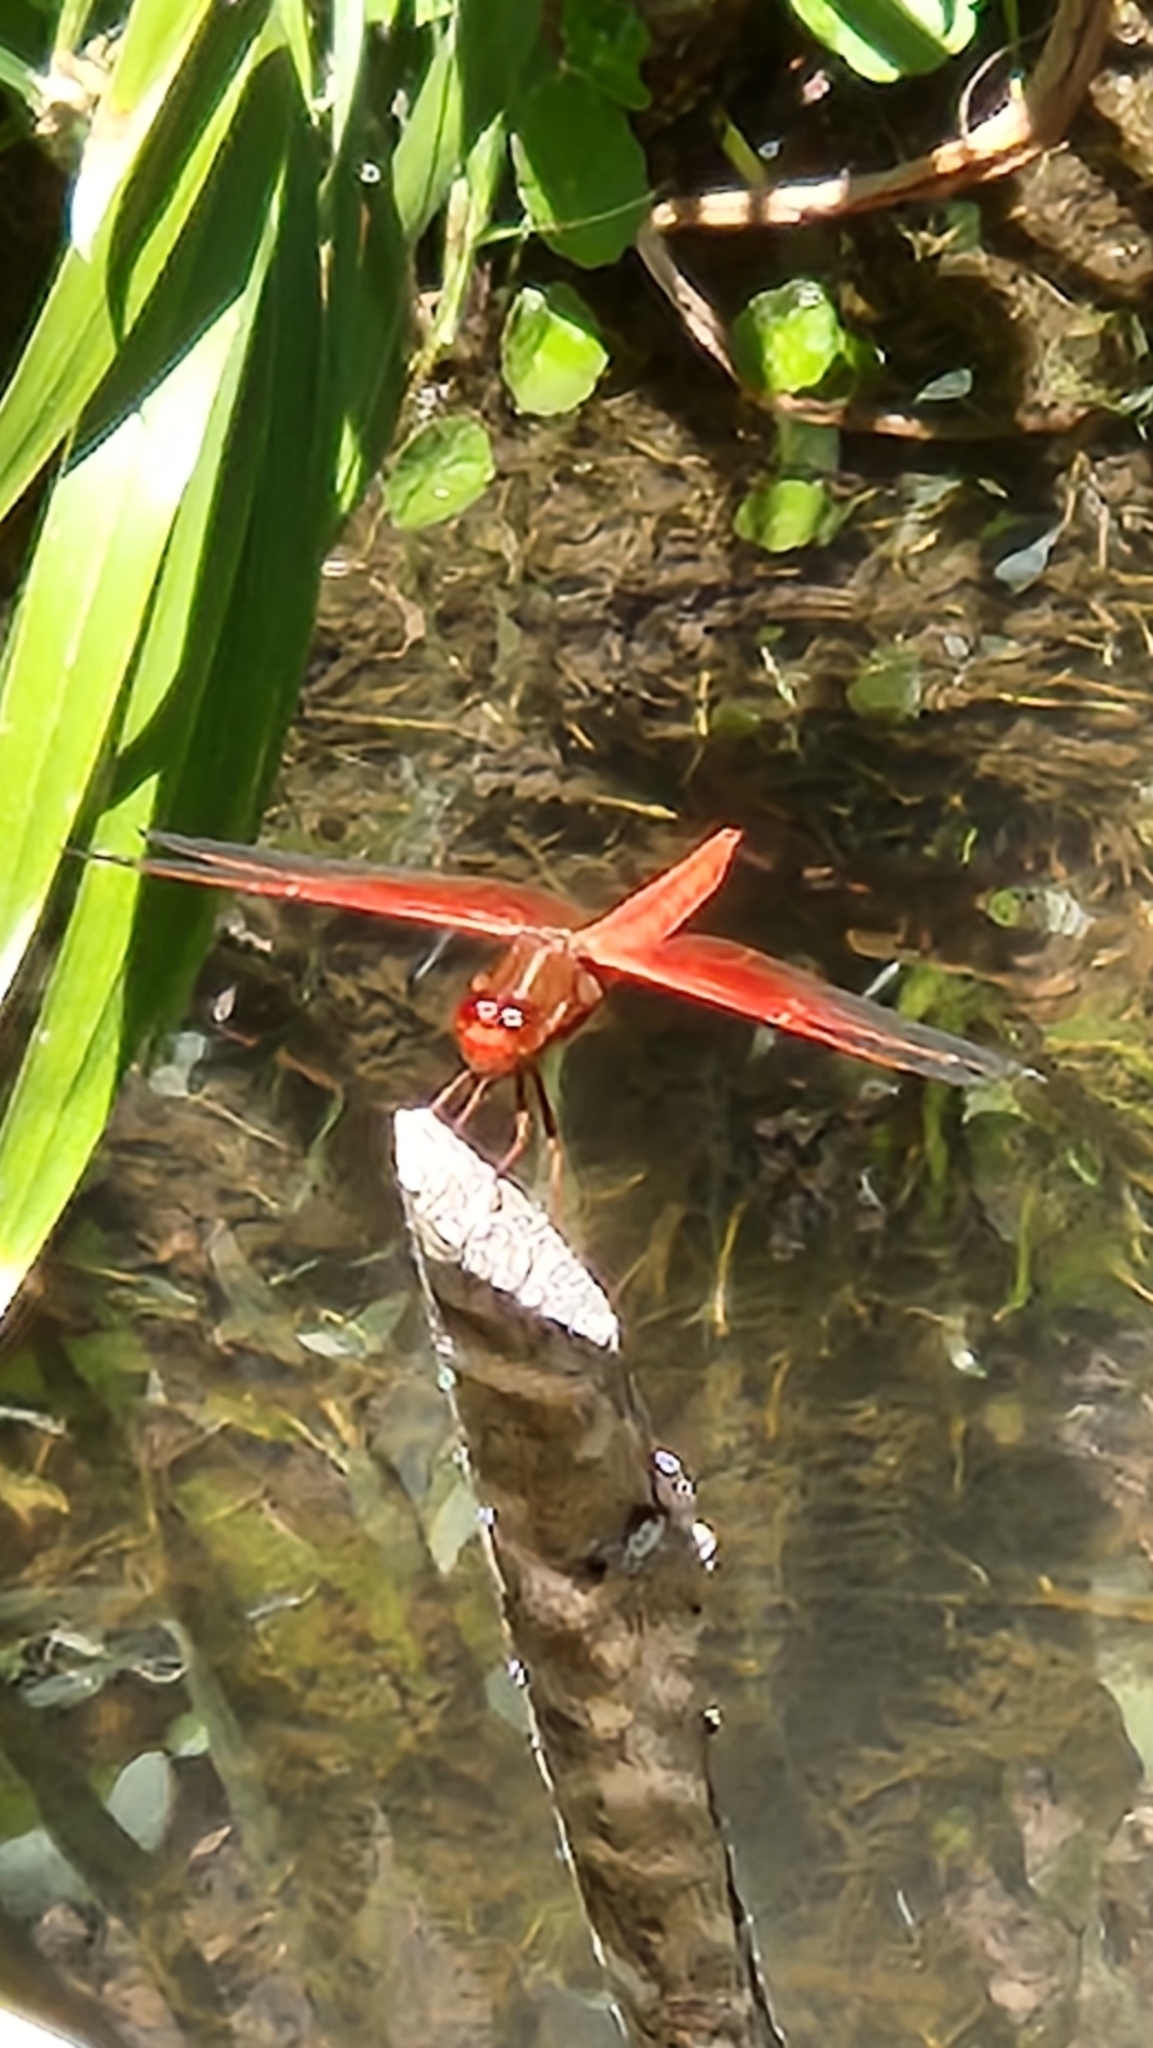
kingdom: Animalia
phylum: Arthropoda
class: Insecta
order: Odonata
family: Libellulidae
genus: Libellula
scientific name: Libellula saturata
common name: Flame skimmer
